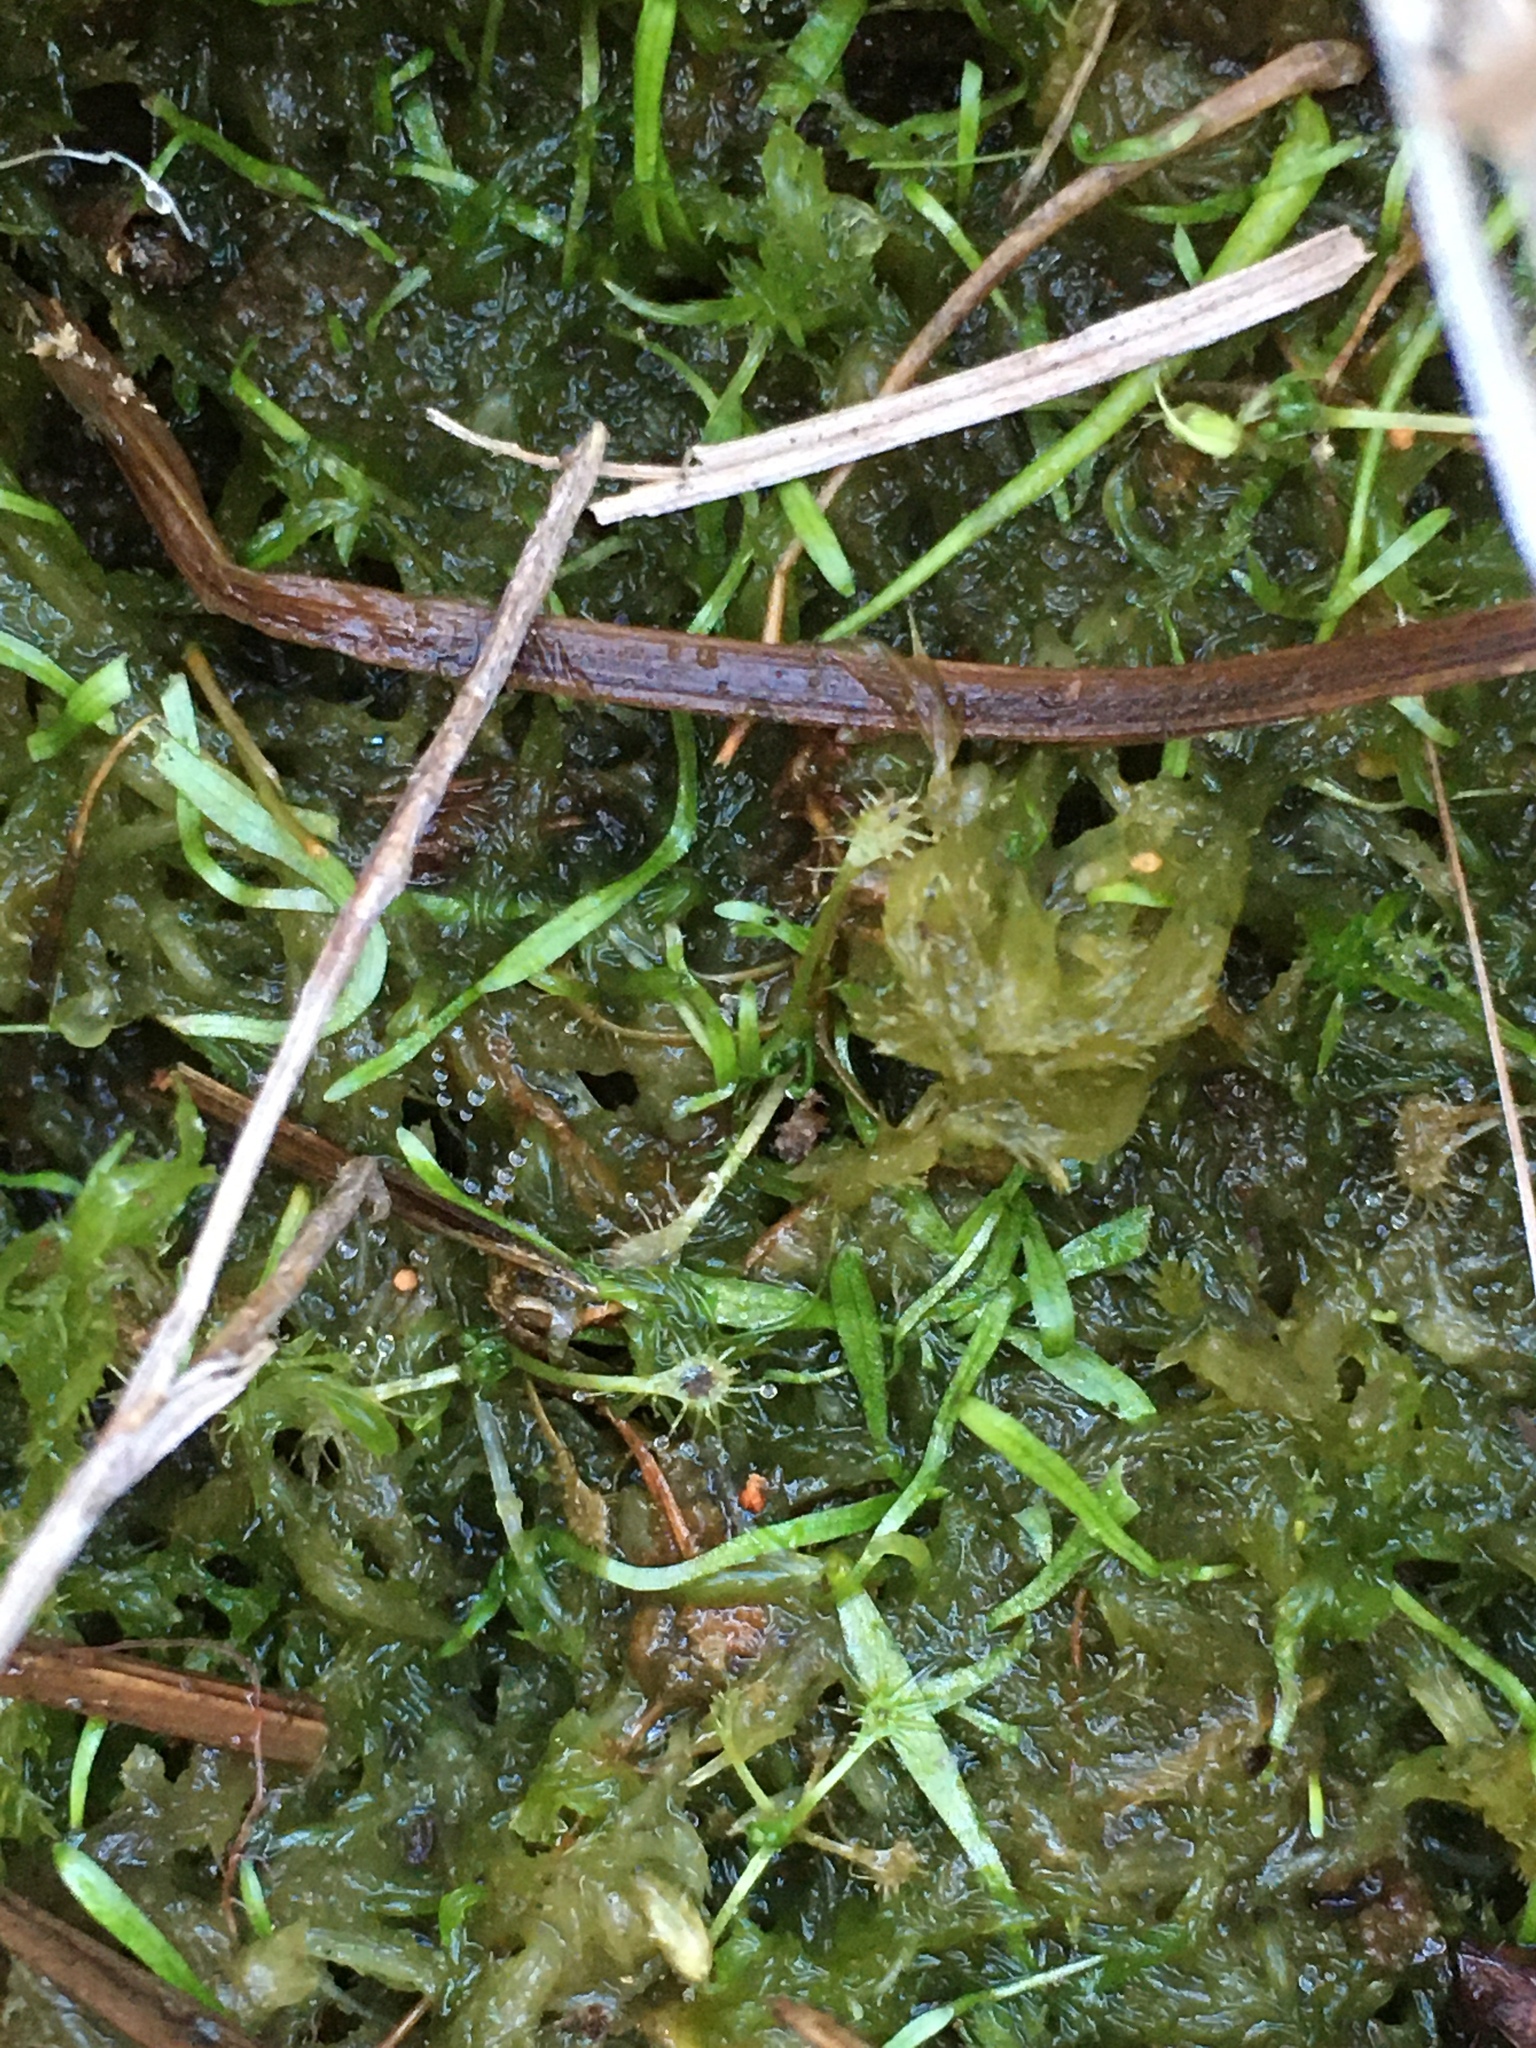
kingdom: Plantae
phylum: Tracheophyta
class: Magnoliopsida
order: Caryophyllales
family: Droseraceae
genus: Drosera
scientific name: Drosera intermedia
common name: Oblong-leaved sundew
